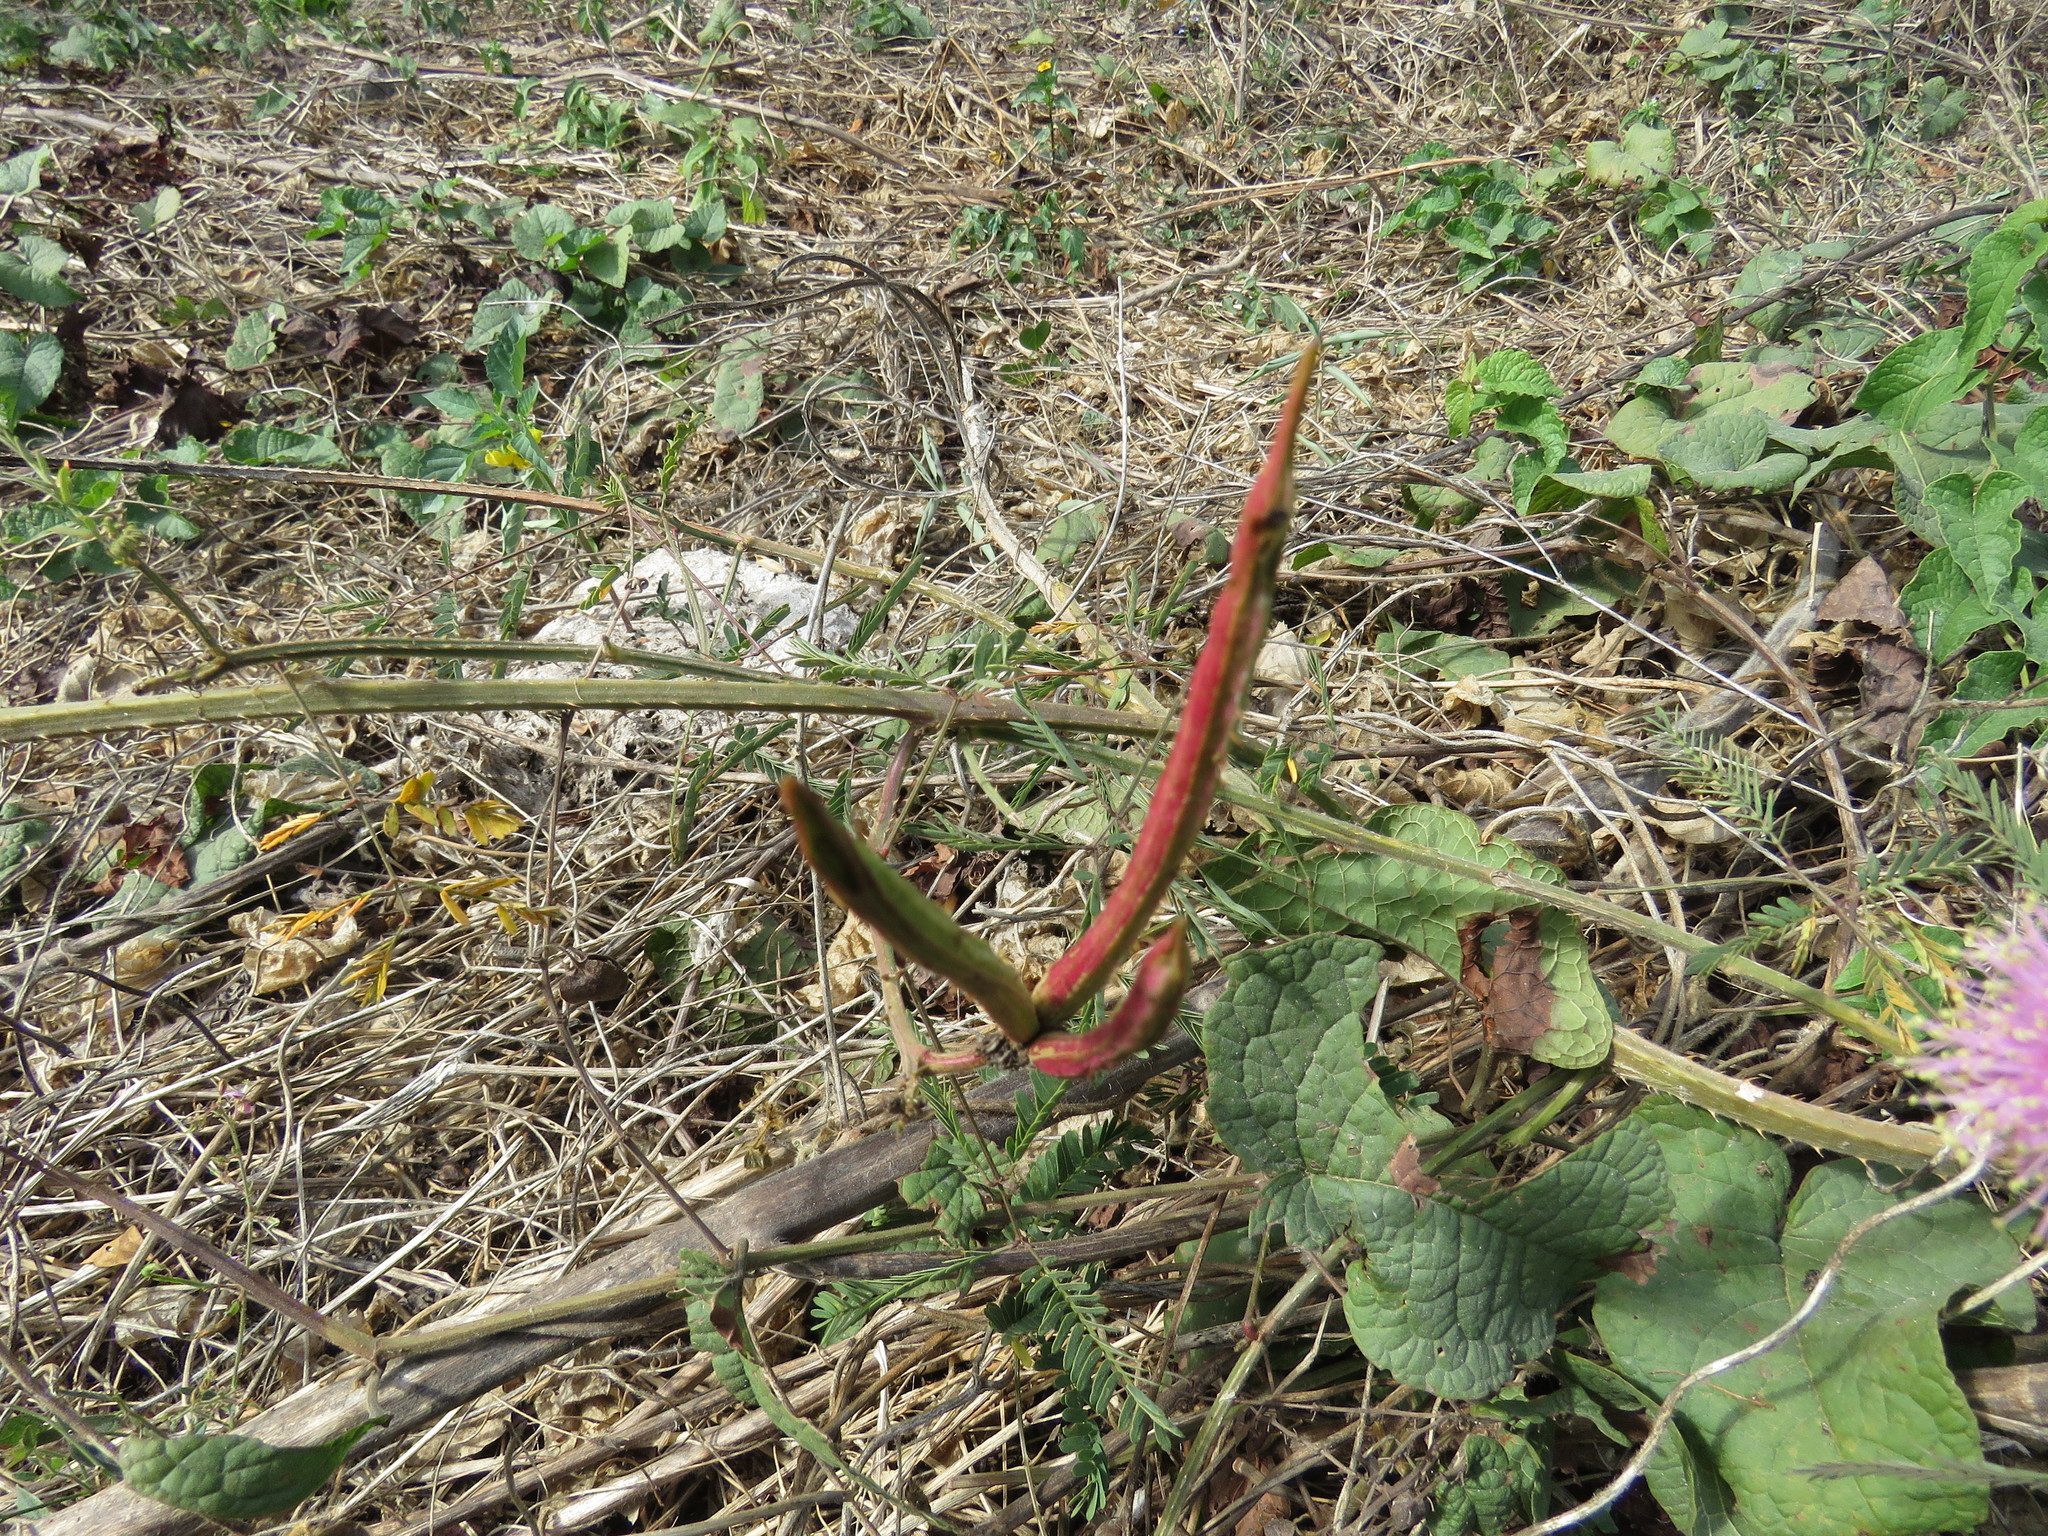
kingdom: Plantae
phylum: Tracheophyta
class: Magnoliopsida
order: Fabales
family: Fabaceae
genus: Mimosa
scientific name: Mimosa robusta
